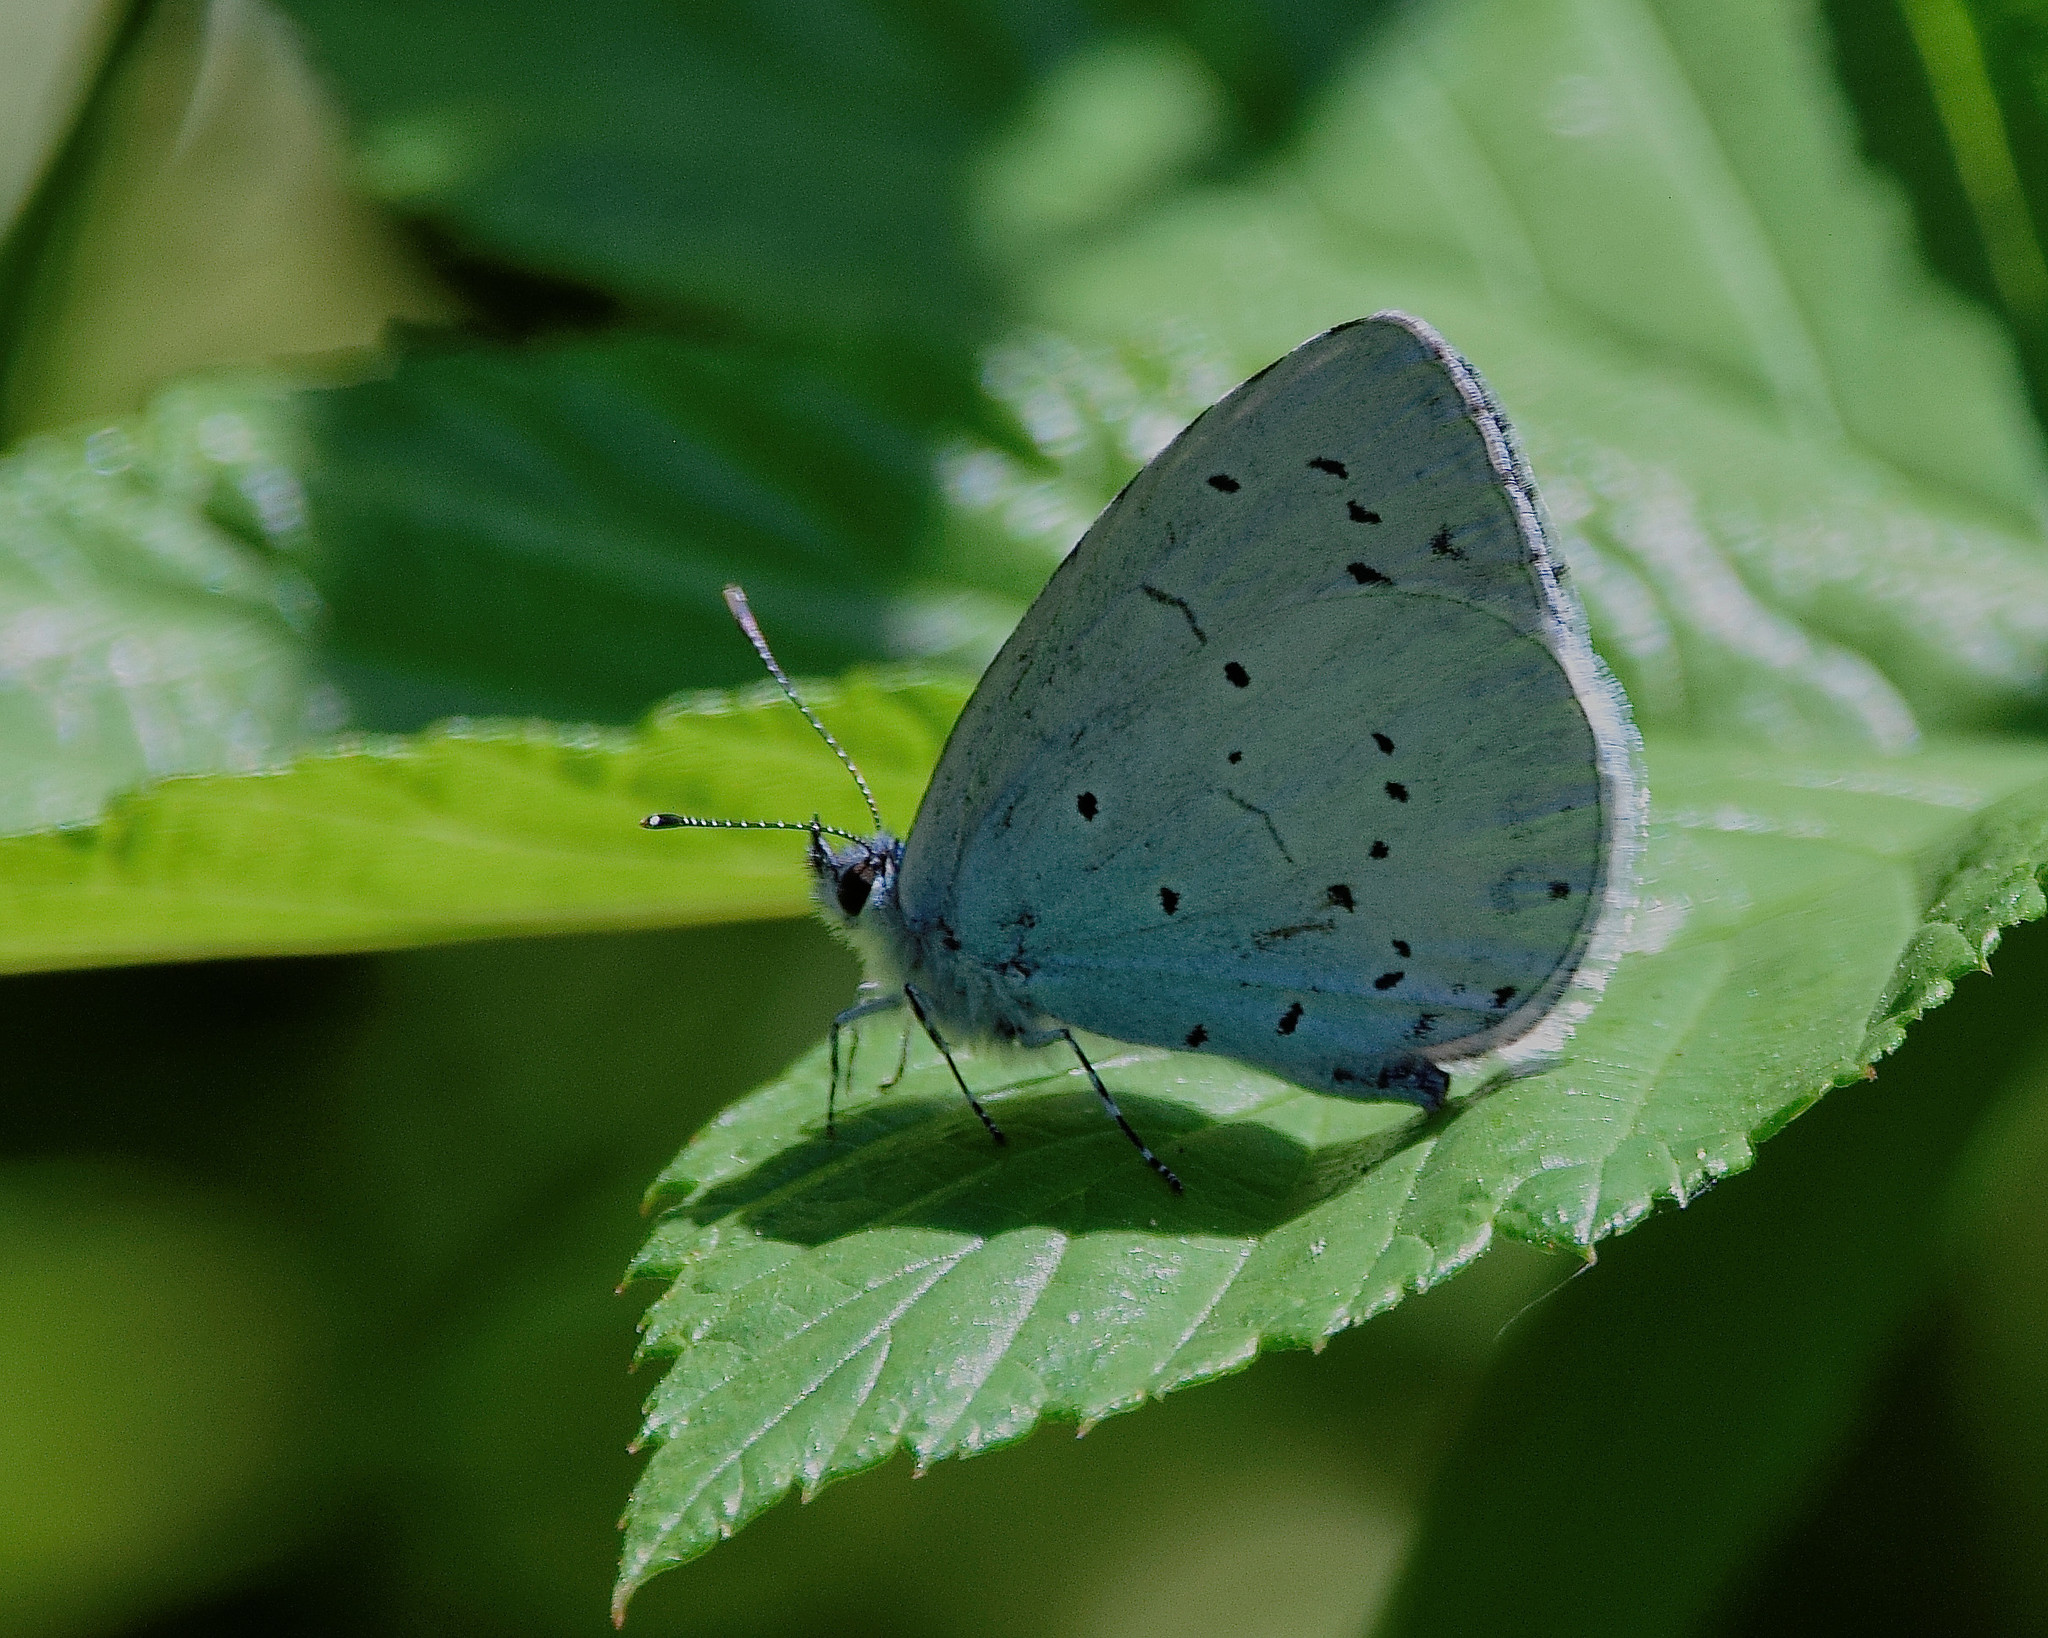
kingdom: Animalia
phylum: Arthropoda
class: Insecta
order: Lepidoptera
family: Lycaenidae
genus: Celastrina
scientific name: Celastrina argiolus
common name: Holly blue
